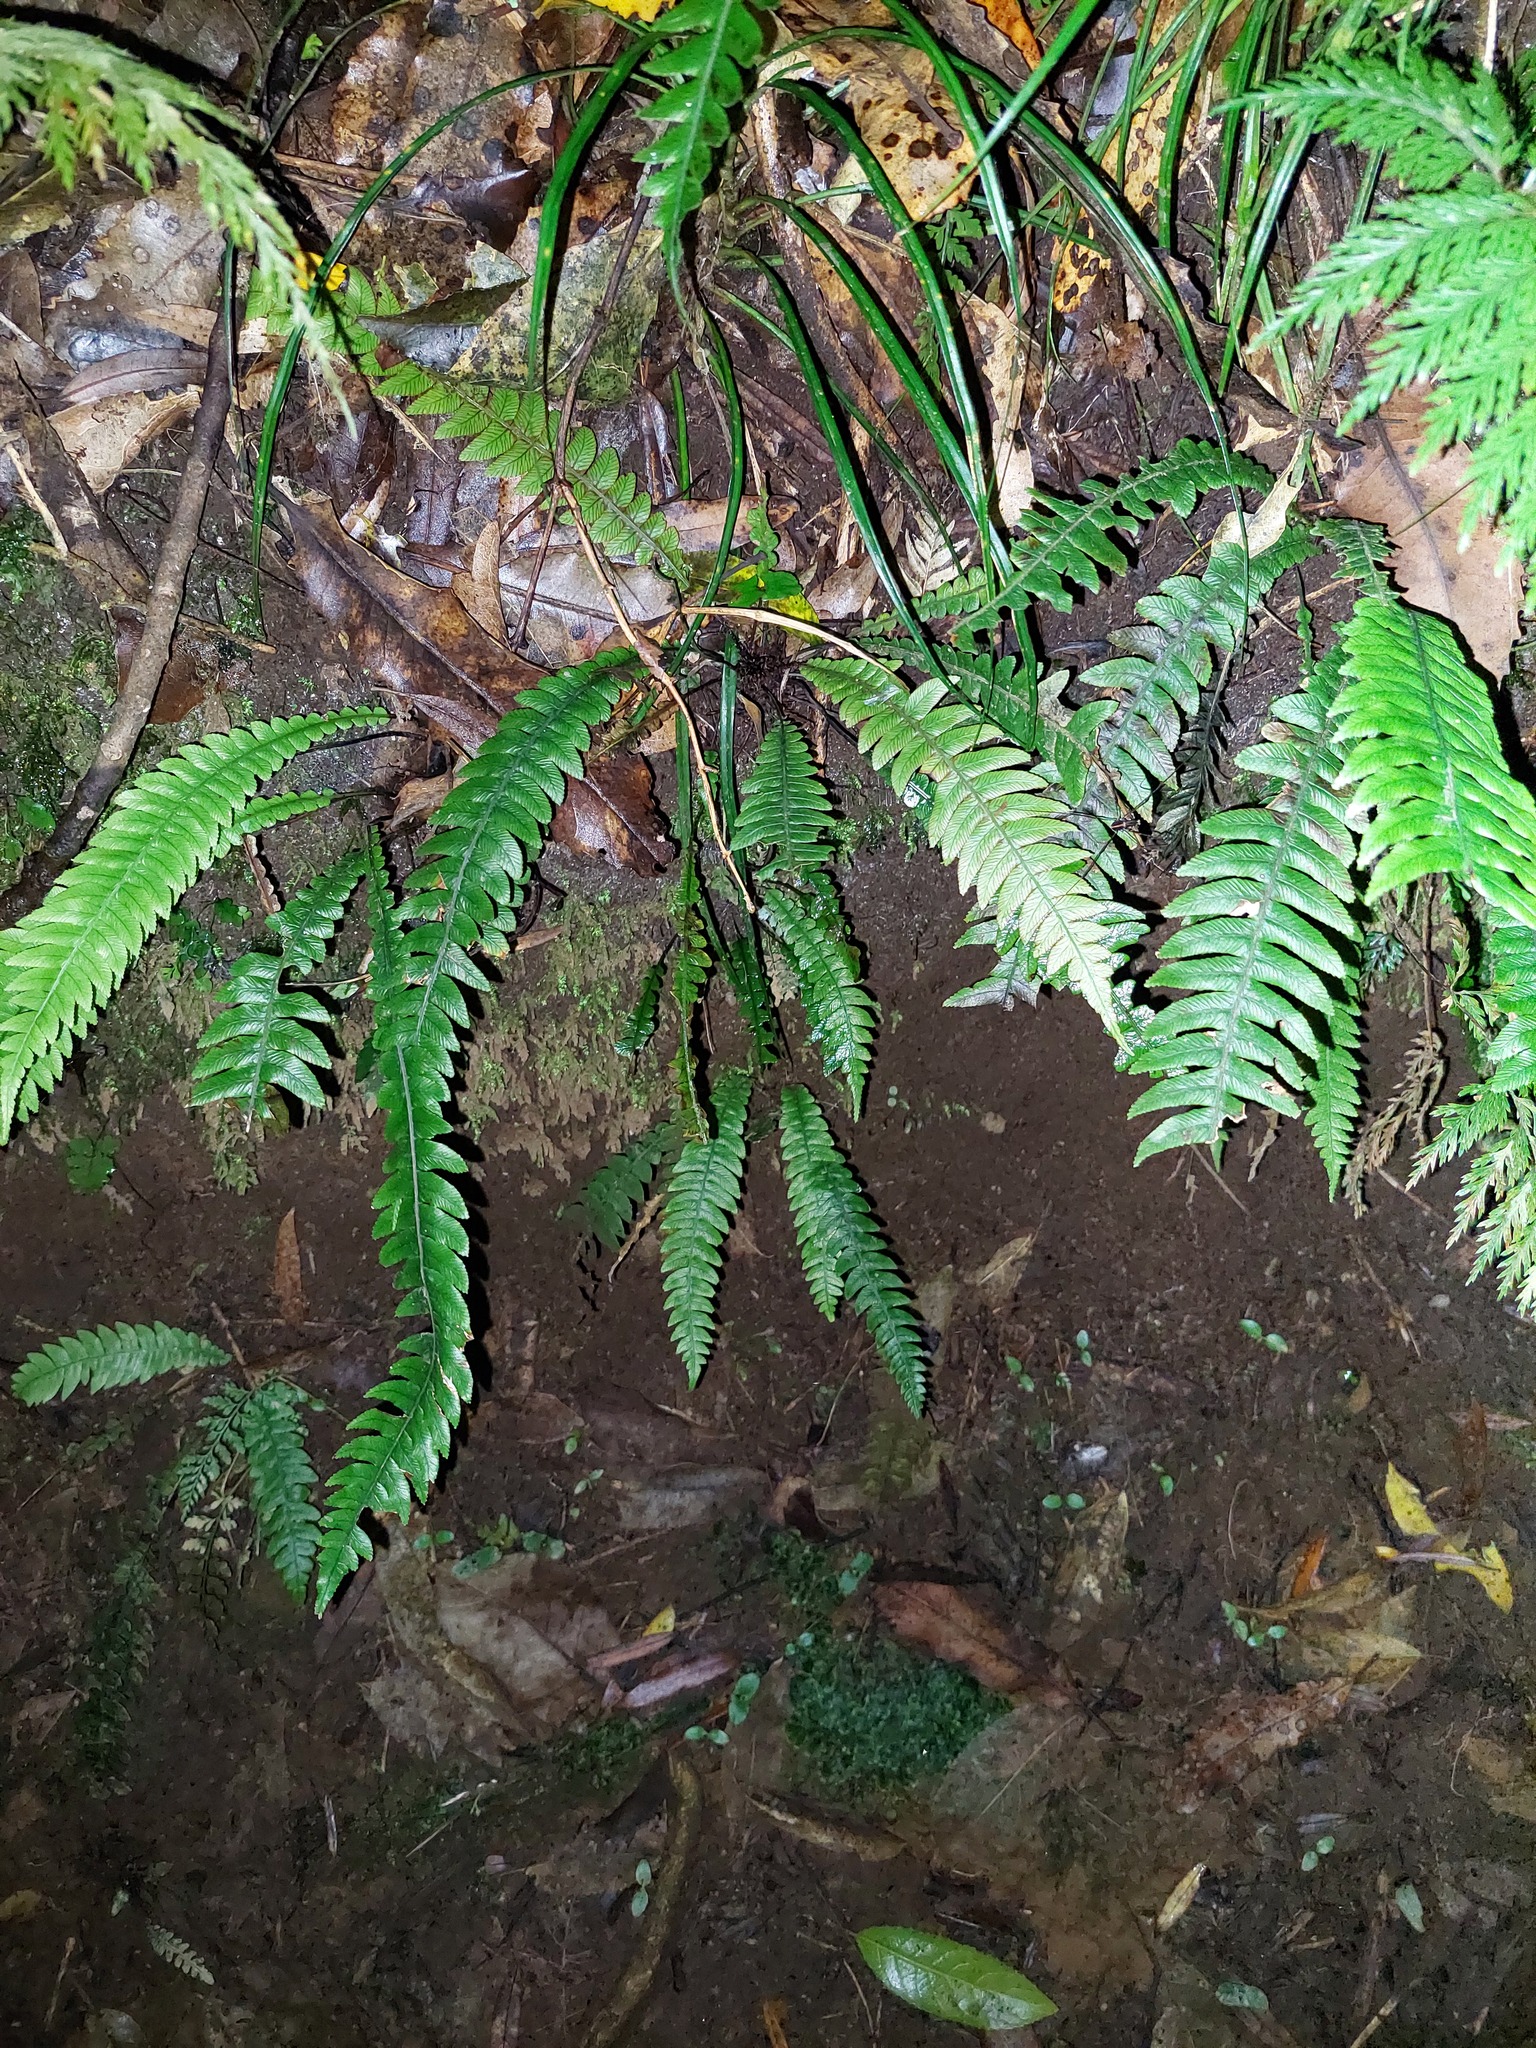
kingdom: Plantae
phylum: Tracheophyta
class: Polypodiopsida
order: Polypodiales
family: Blechnaceae
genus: Austroblechnum
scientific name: Austroblechnum lanceolatum
